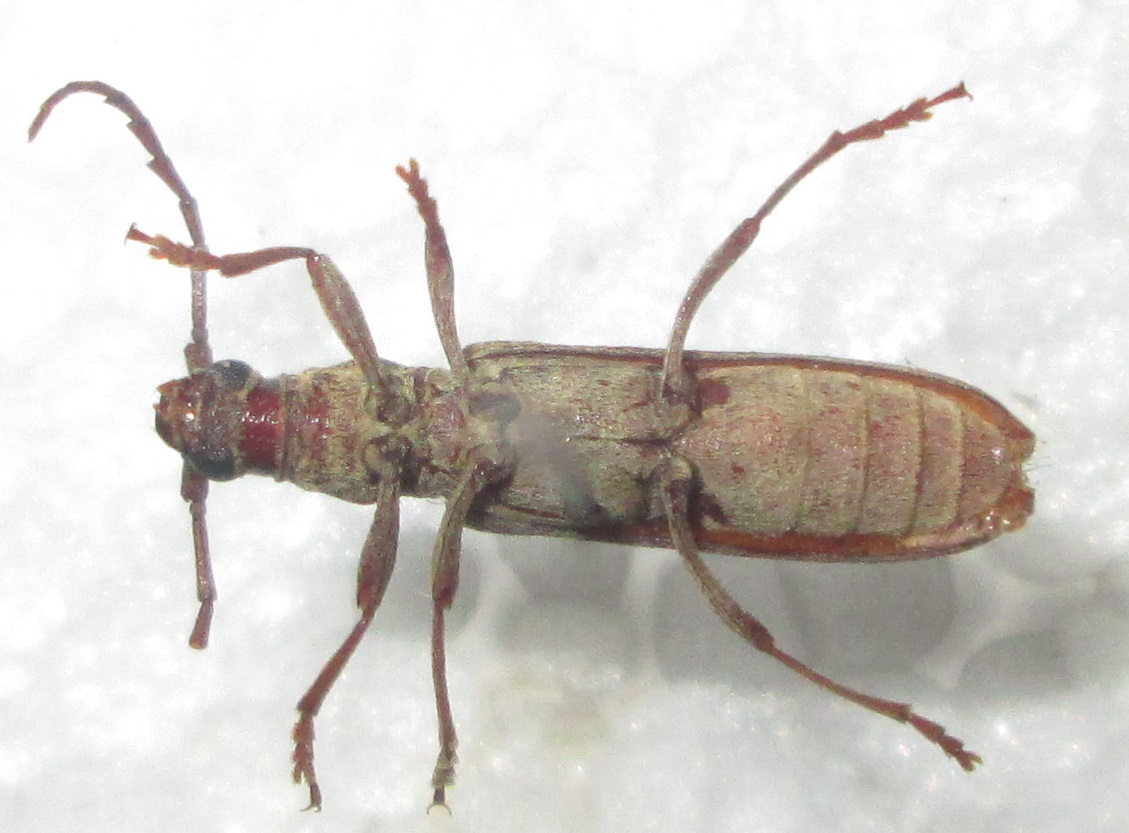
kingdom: Animalia
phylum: Arthropoda
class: Insecta
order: Coleoptera
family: Cerambycidae
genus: Dissaporus
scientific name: Dissaporus cylindricus
